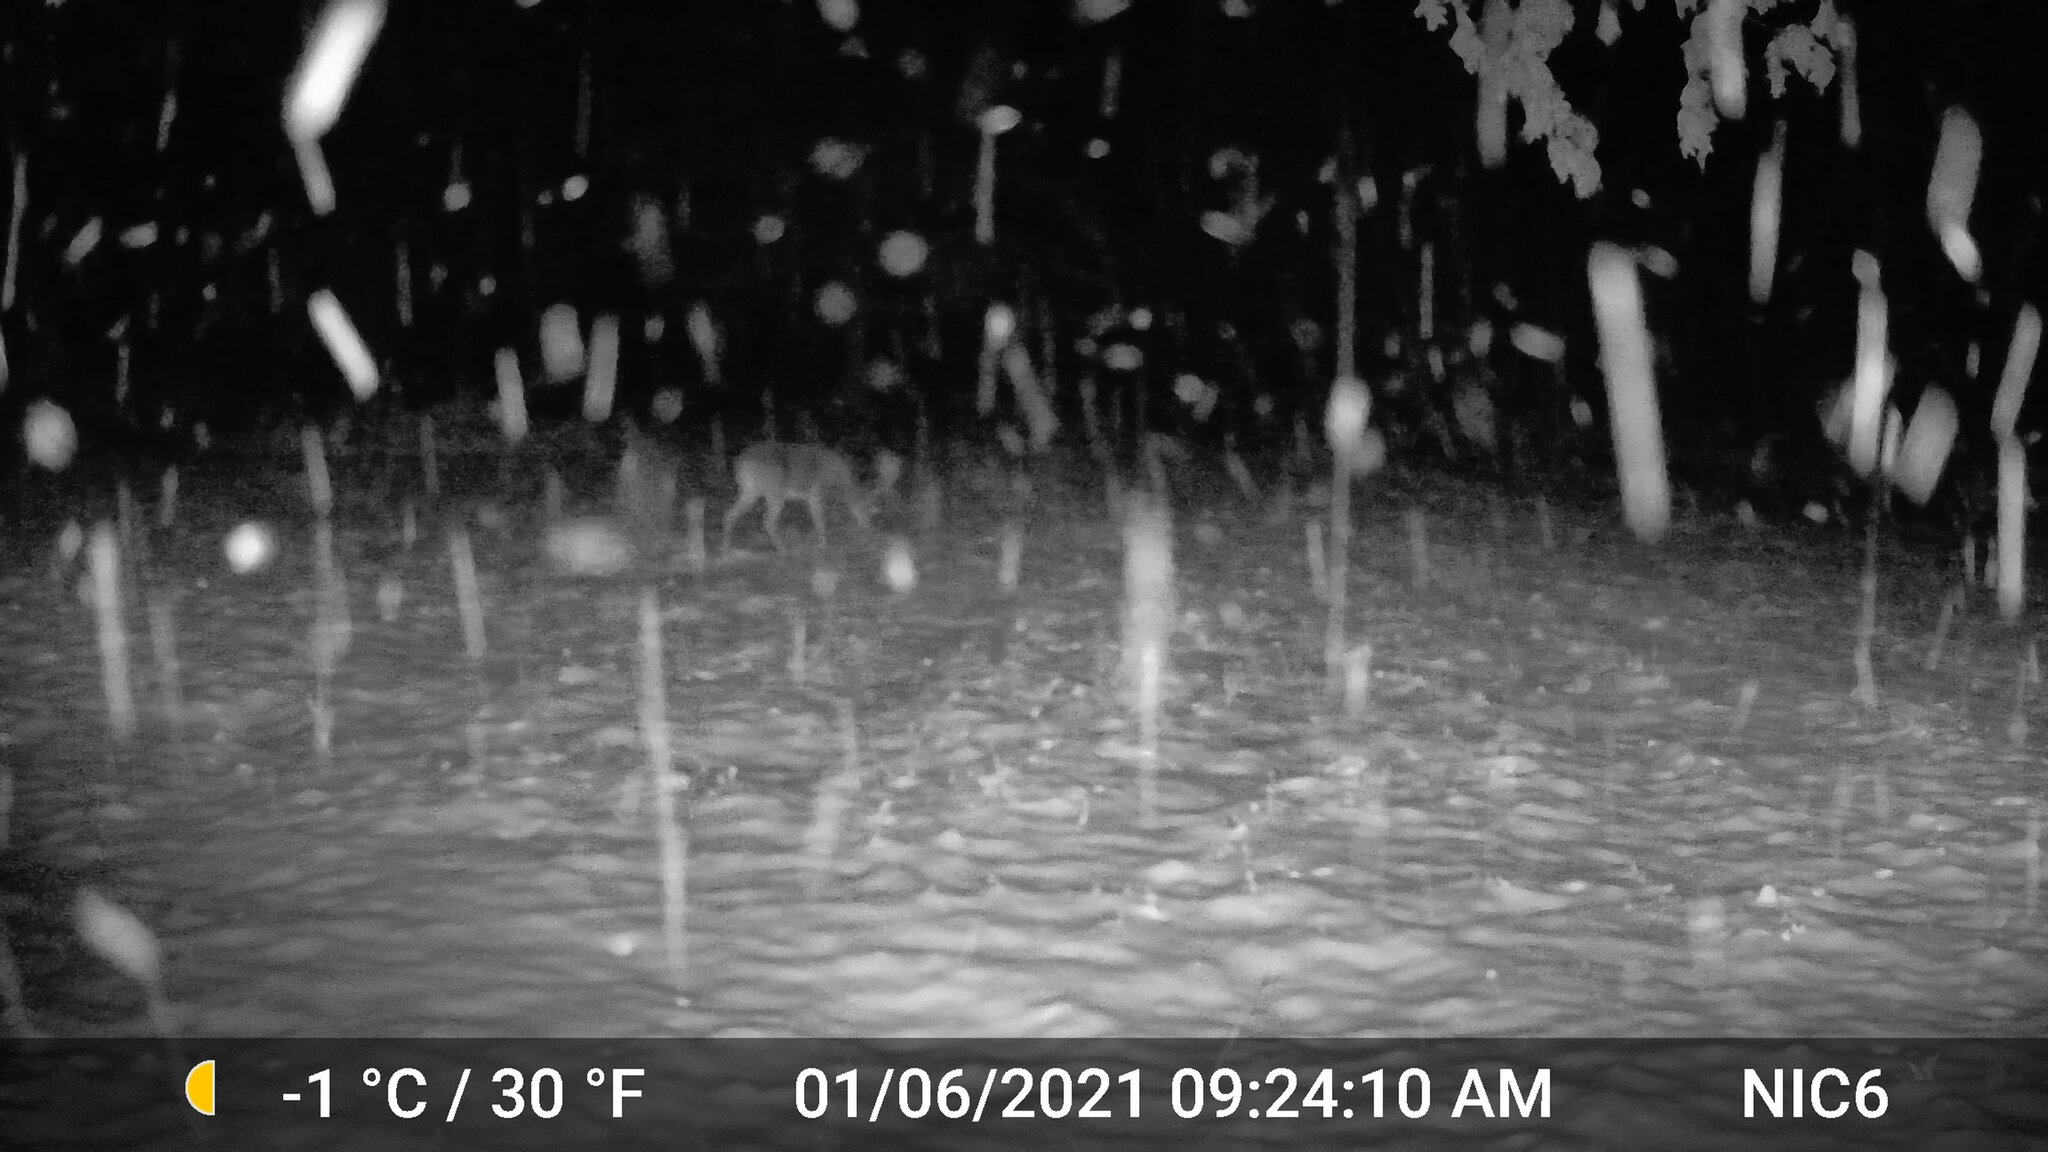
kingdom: Animalia
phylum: Chordata
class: Mammalia
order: Artiodactyla
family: Cervidae
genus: Odocoileus
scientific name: Odocoileus virginianus
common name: White-tailed deer
